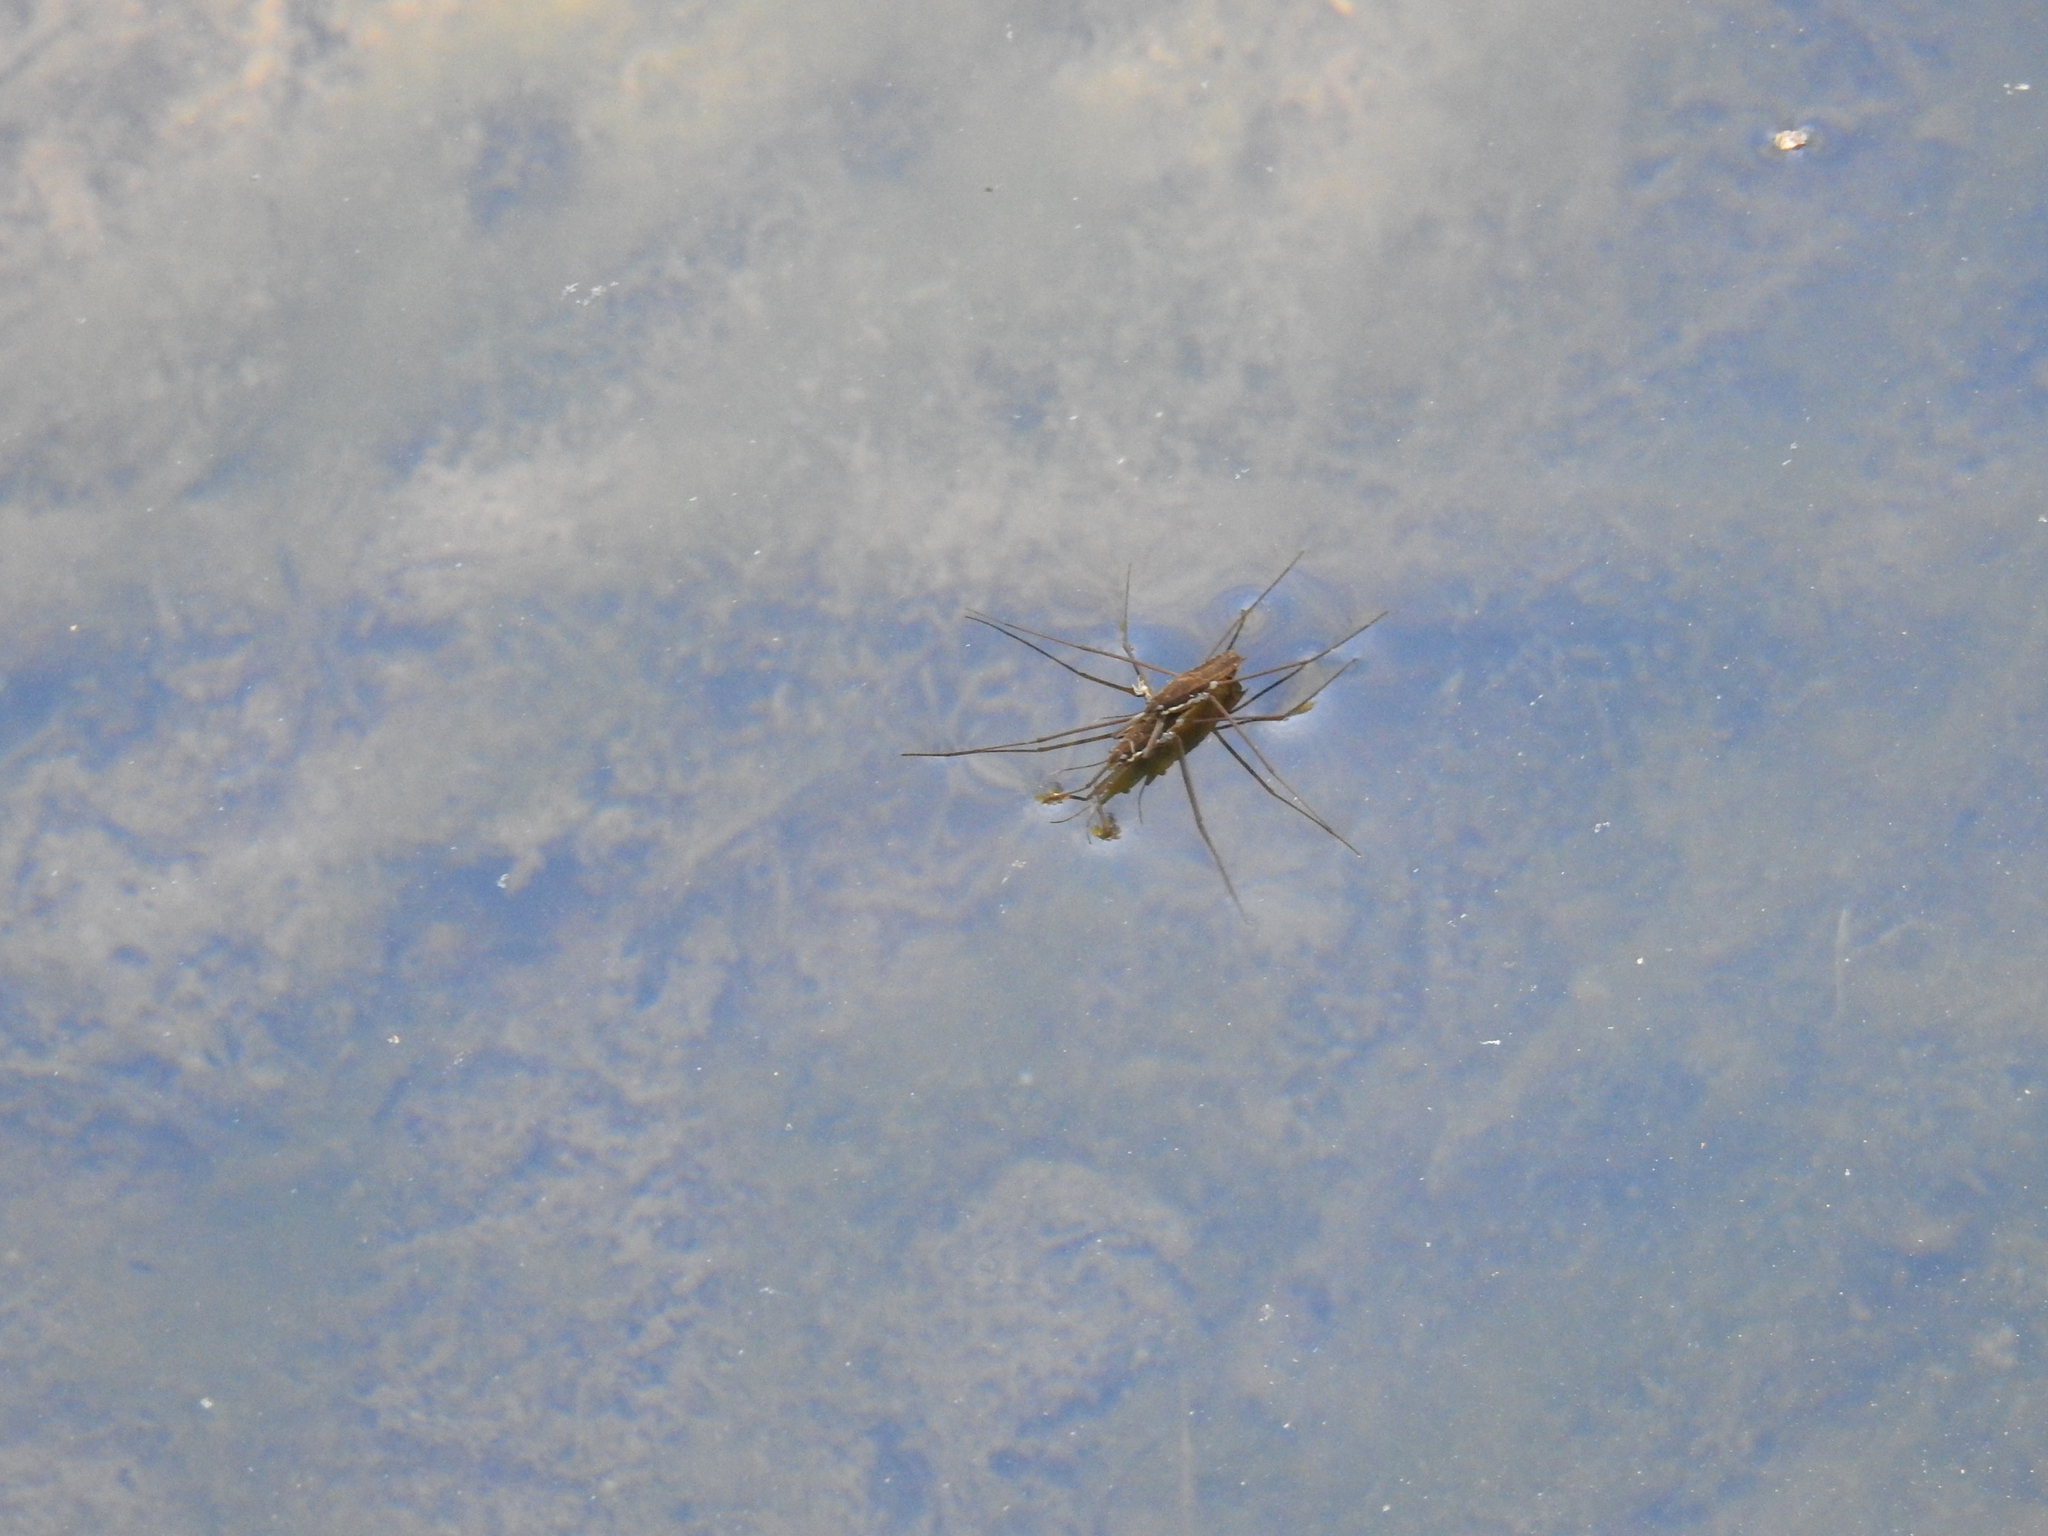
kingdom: Animalia
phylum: Arthropoda
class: Insecta
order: Hemiptera
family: Gerridae
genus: Aquarius
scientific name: Aquarius remigis
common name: Common water strider
